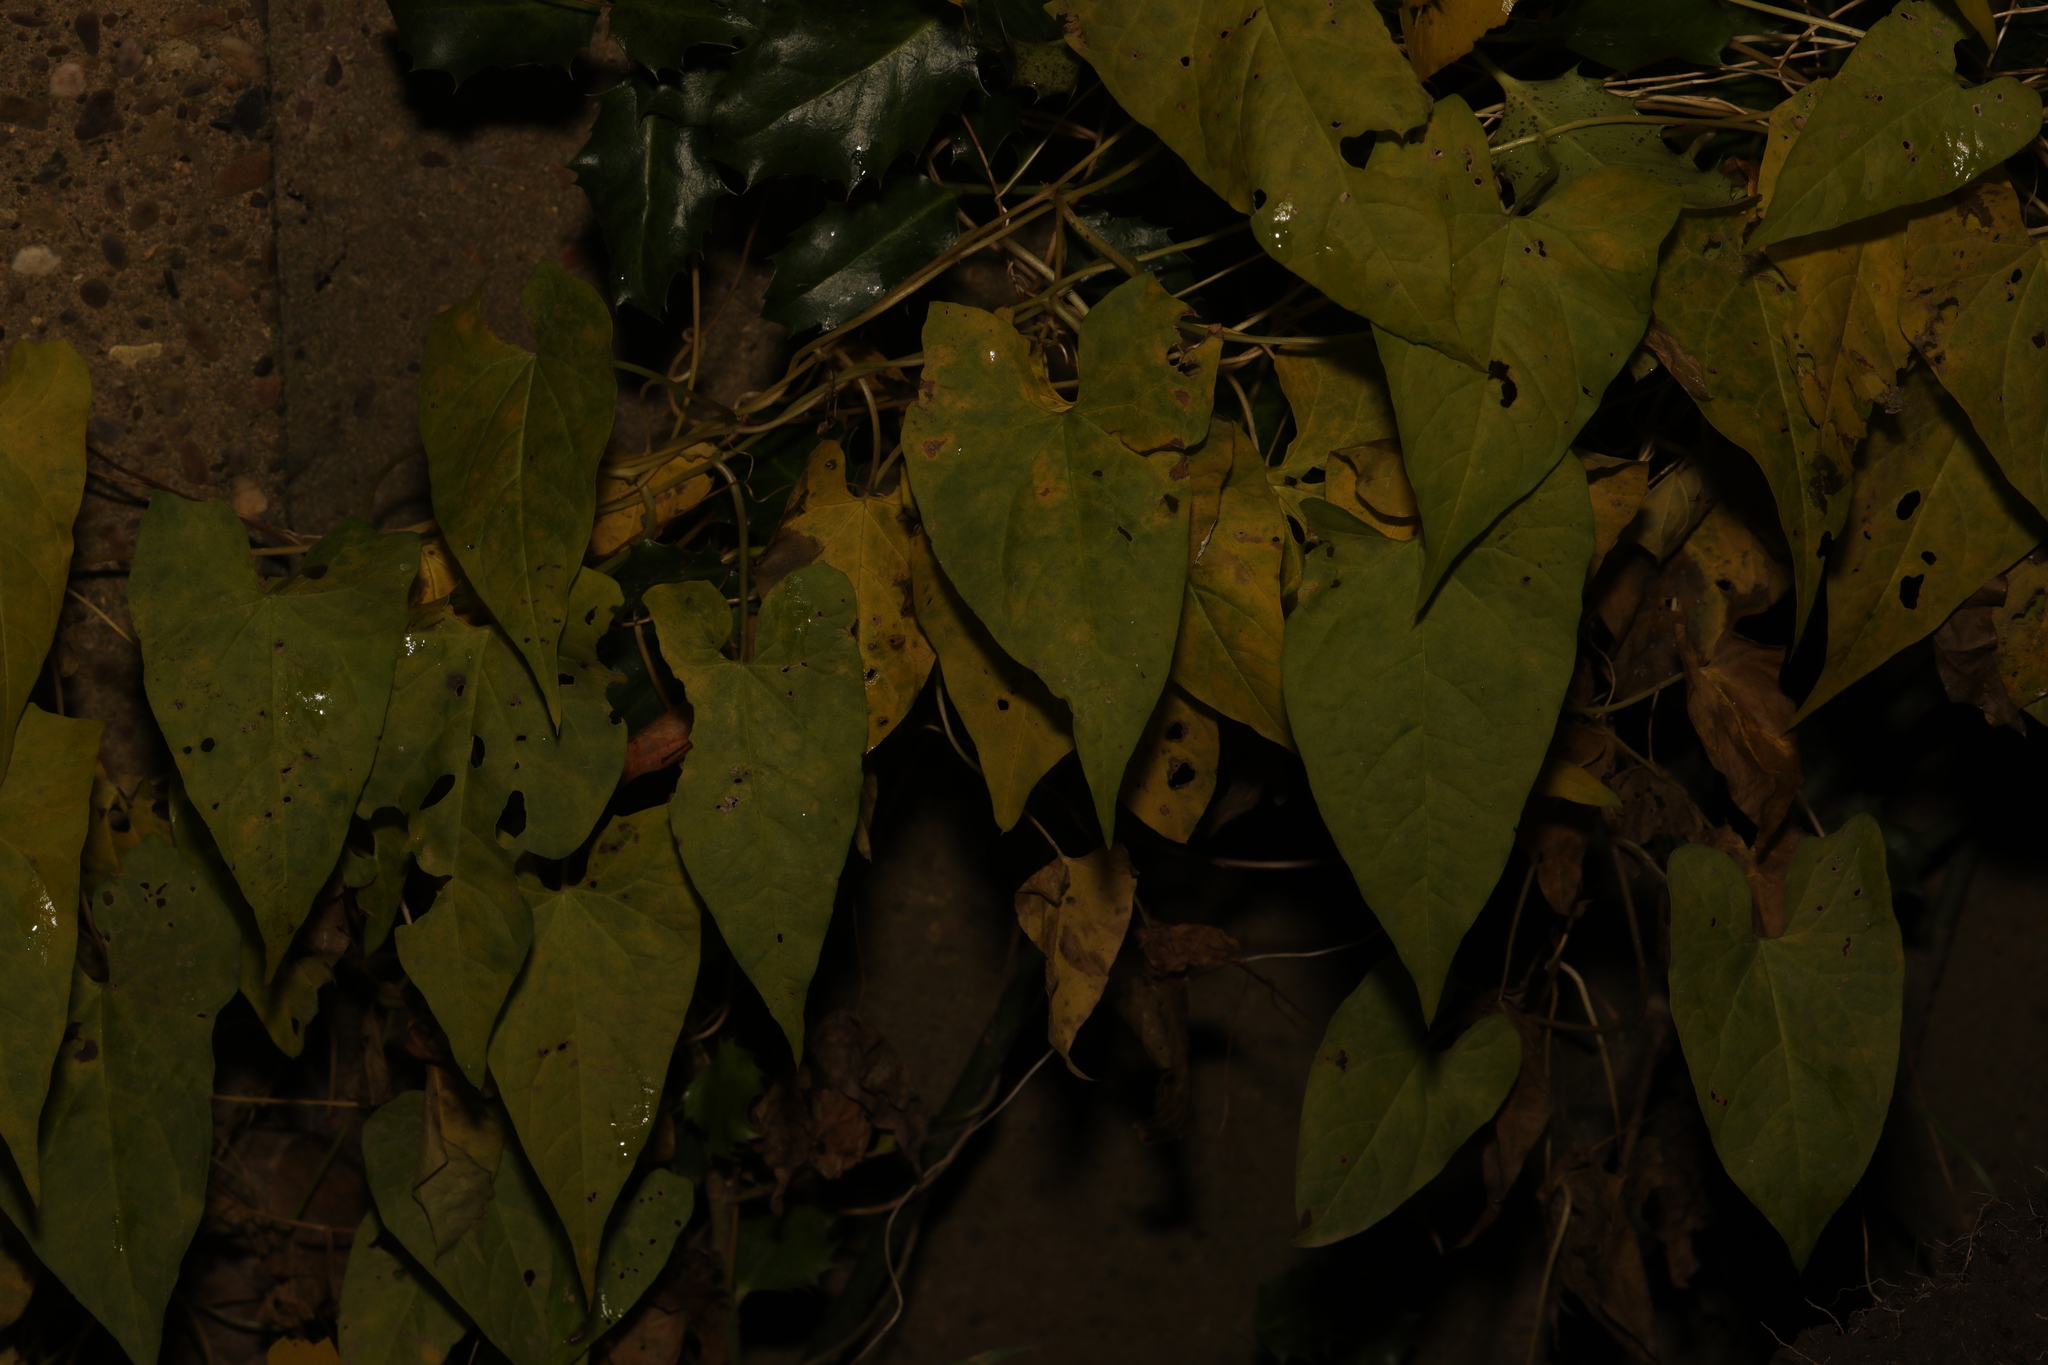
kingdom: Plantae
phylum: Tracheophyta
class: Magnoliopsida
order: Solanales
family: Convolvulaceae
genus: Calystegia
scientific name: Calystegia
